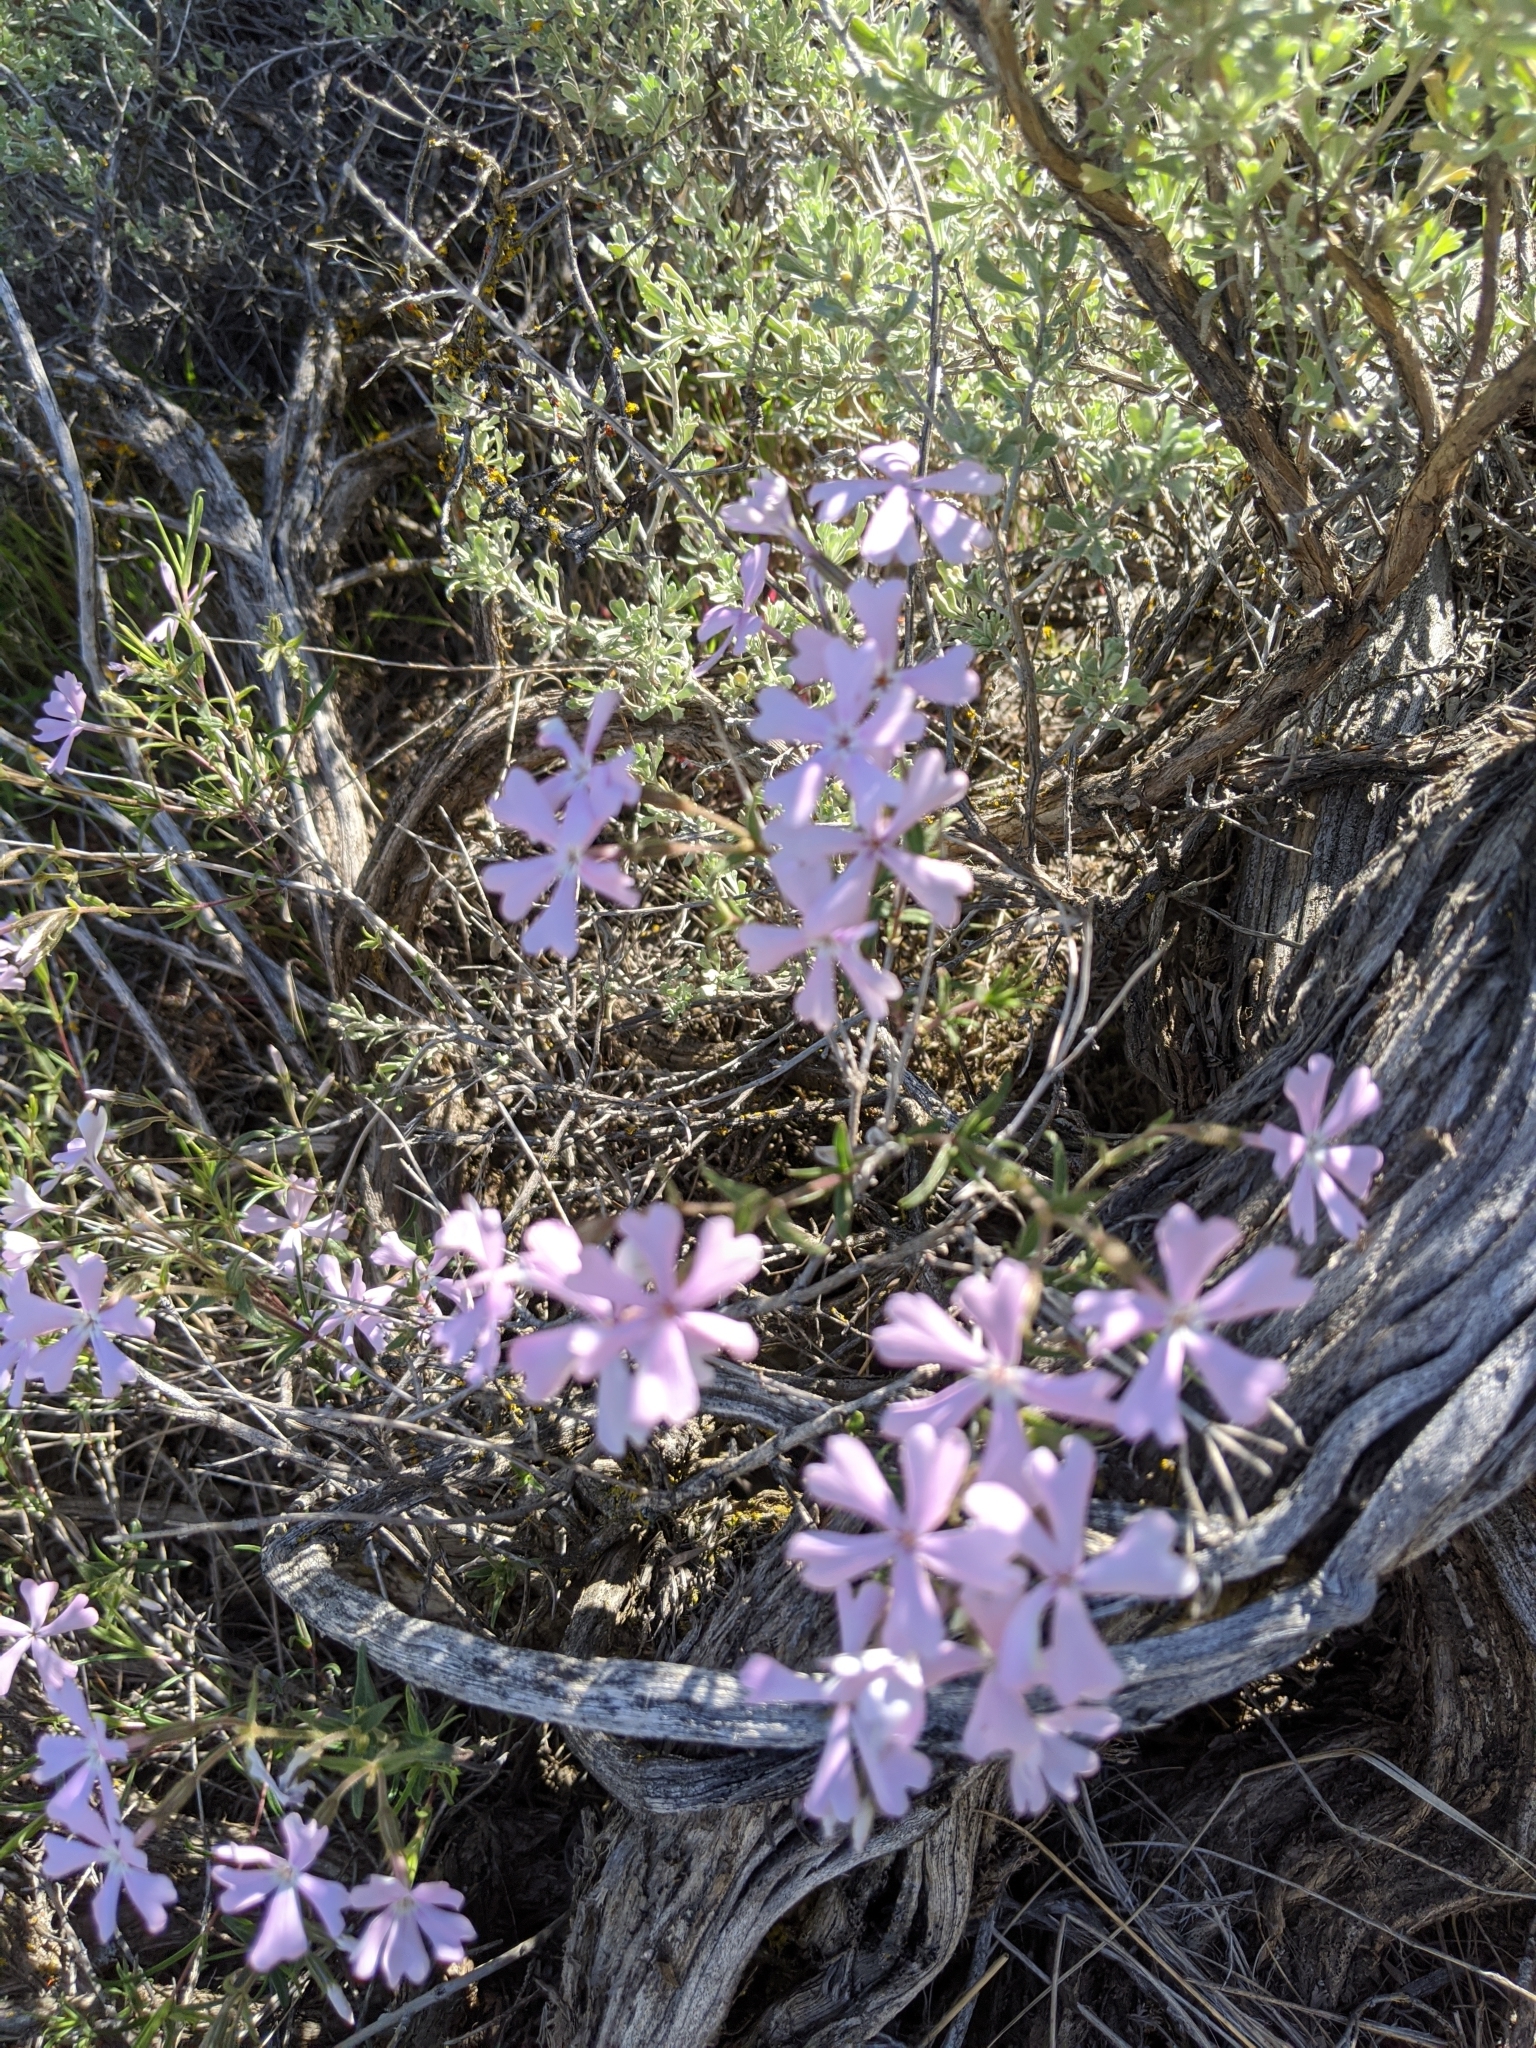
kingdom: Plantae
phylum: Tracheophyta
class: Magnoliopsida
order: Ericales
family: Polemoniaceae
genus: Phlox
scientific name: Phlox speciosa
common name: Bush phlox
